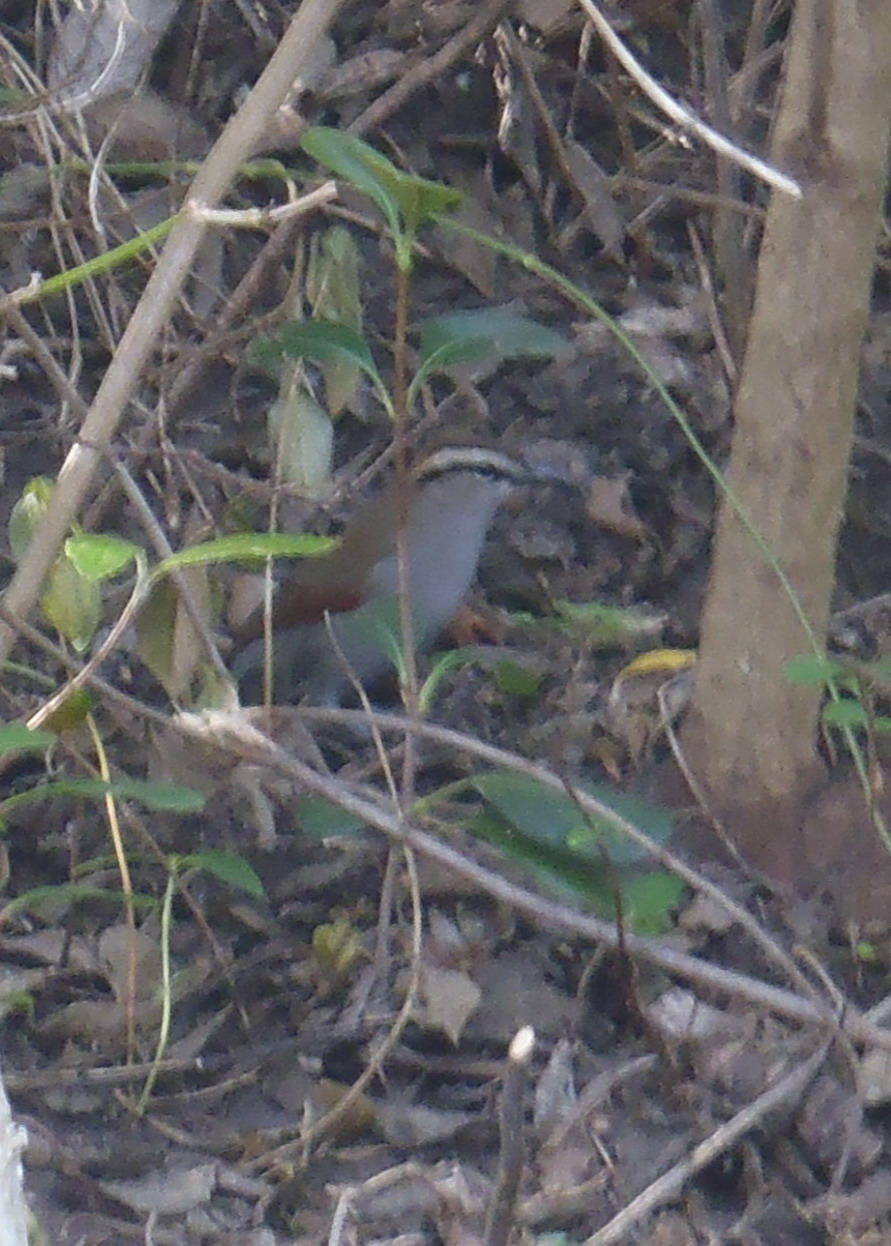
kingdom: Animalia
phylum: Chordata
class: Aves
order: Passeriformes
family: Malaconotidae
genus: Tchagra
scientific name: Tchagra tchagra
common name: Southern tchagra
